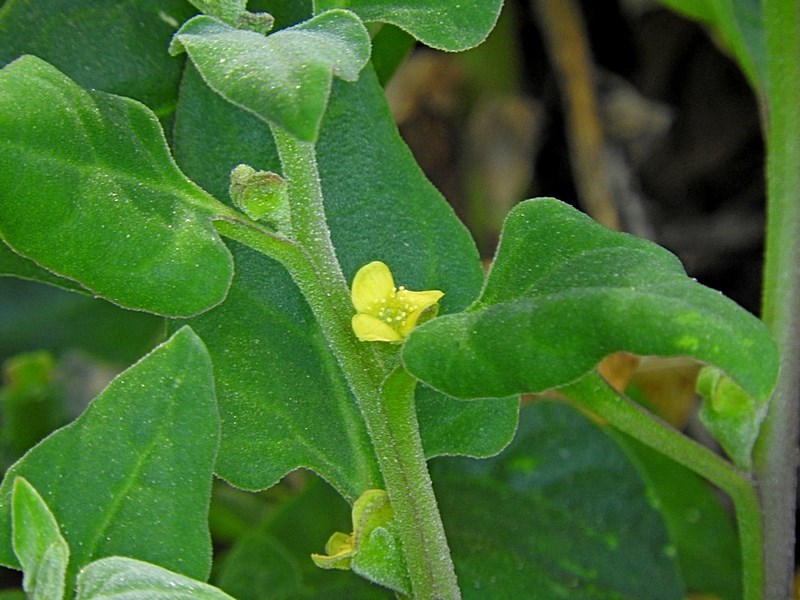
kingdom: Plantae
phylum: Tracheophyta
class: Magnoliopsida
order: Caryophyllales
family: Aizoaceae
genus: Tetragonia
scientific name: Tetragonia tetragonoides
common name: New zealand-spinach
